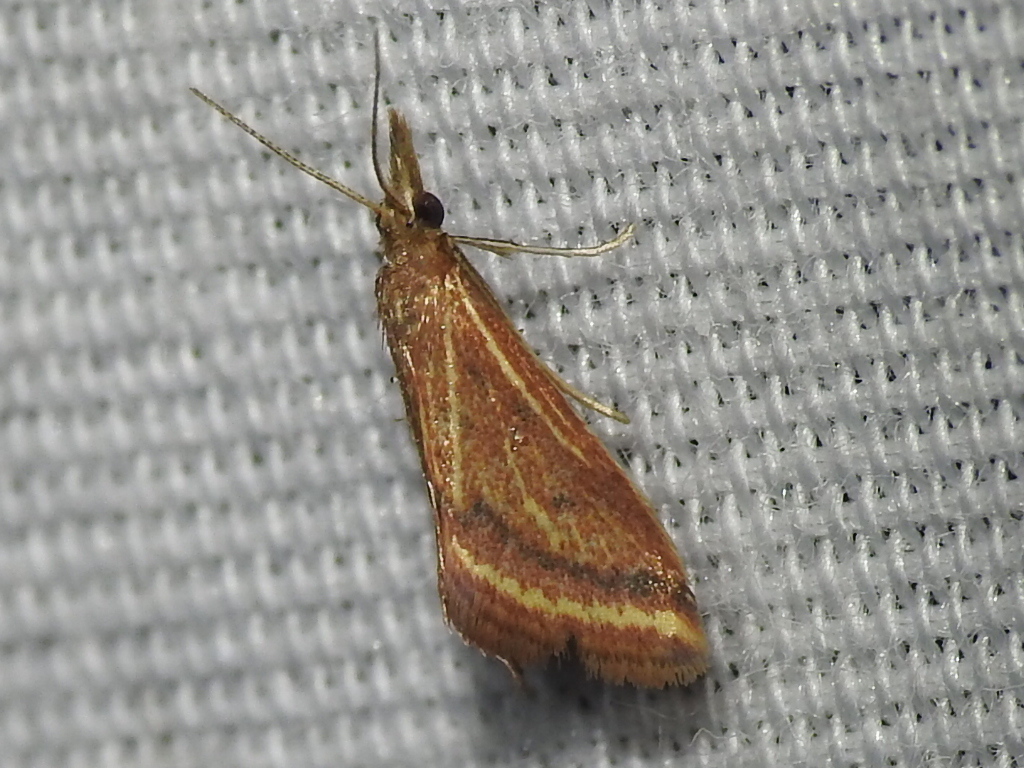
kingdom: Animalia
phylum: Arthropoda
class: Insecta
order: Lepidoptera
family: Crambidae
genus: Microtheoris
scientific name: Microtheoris ophionalis
